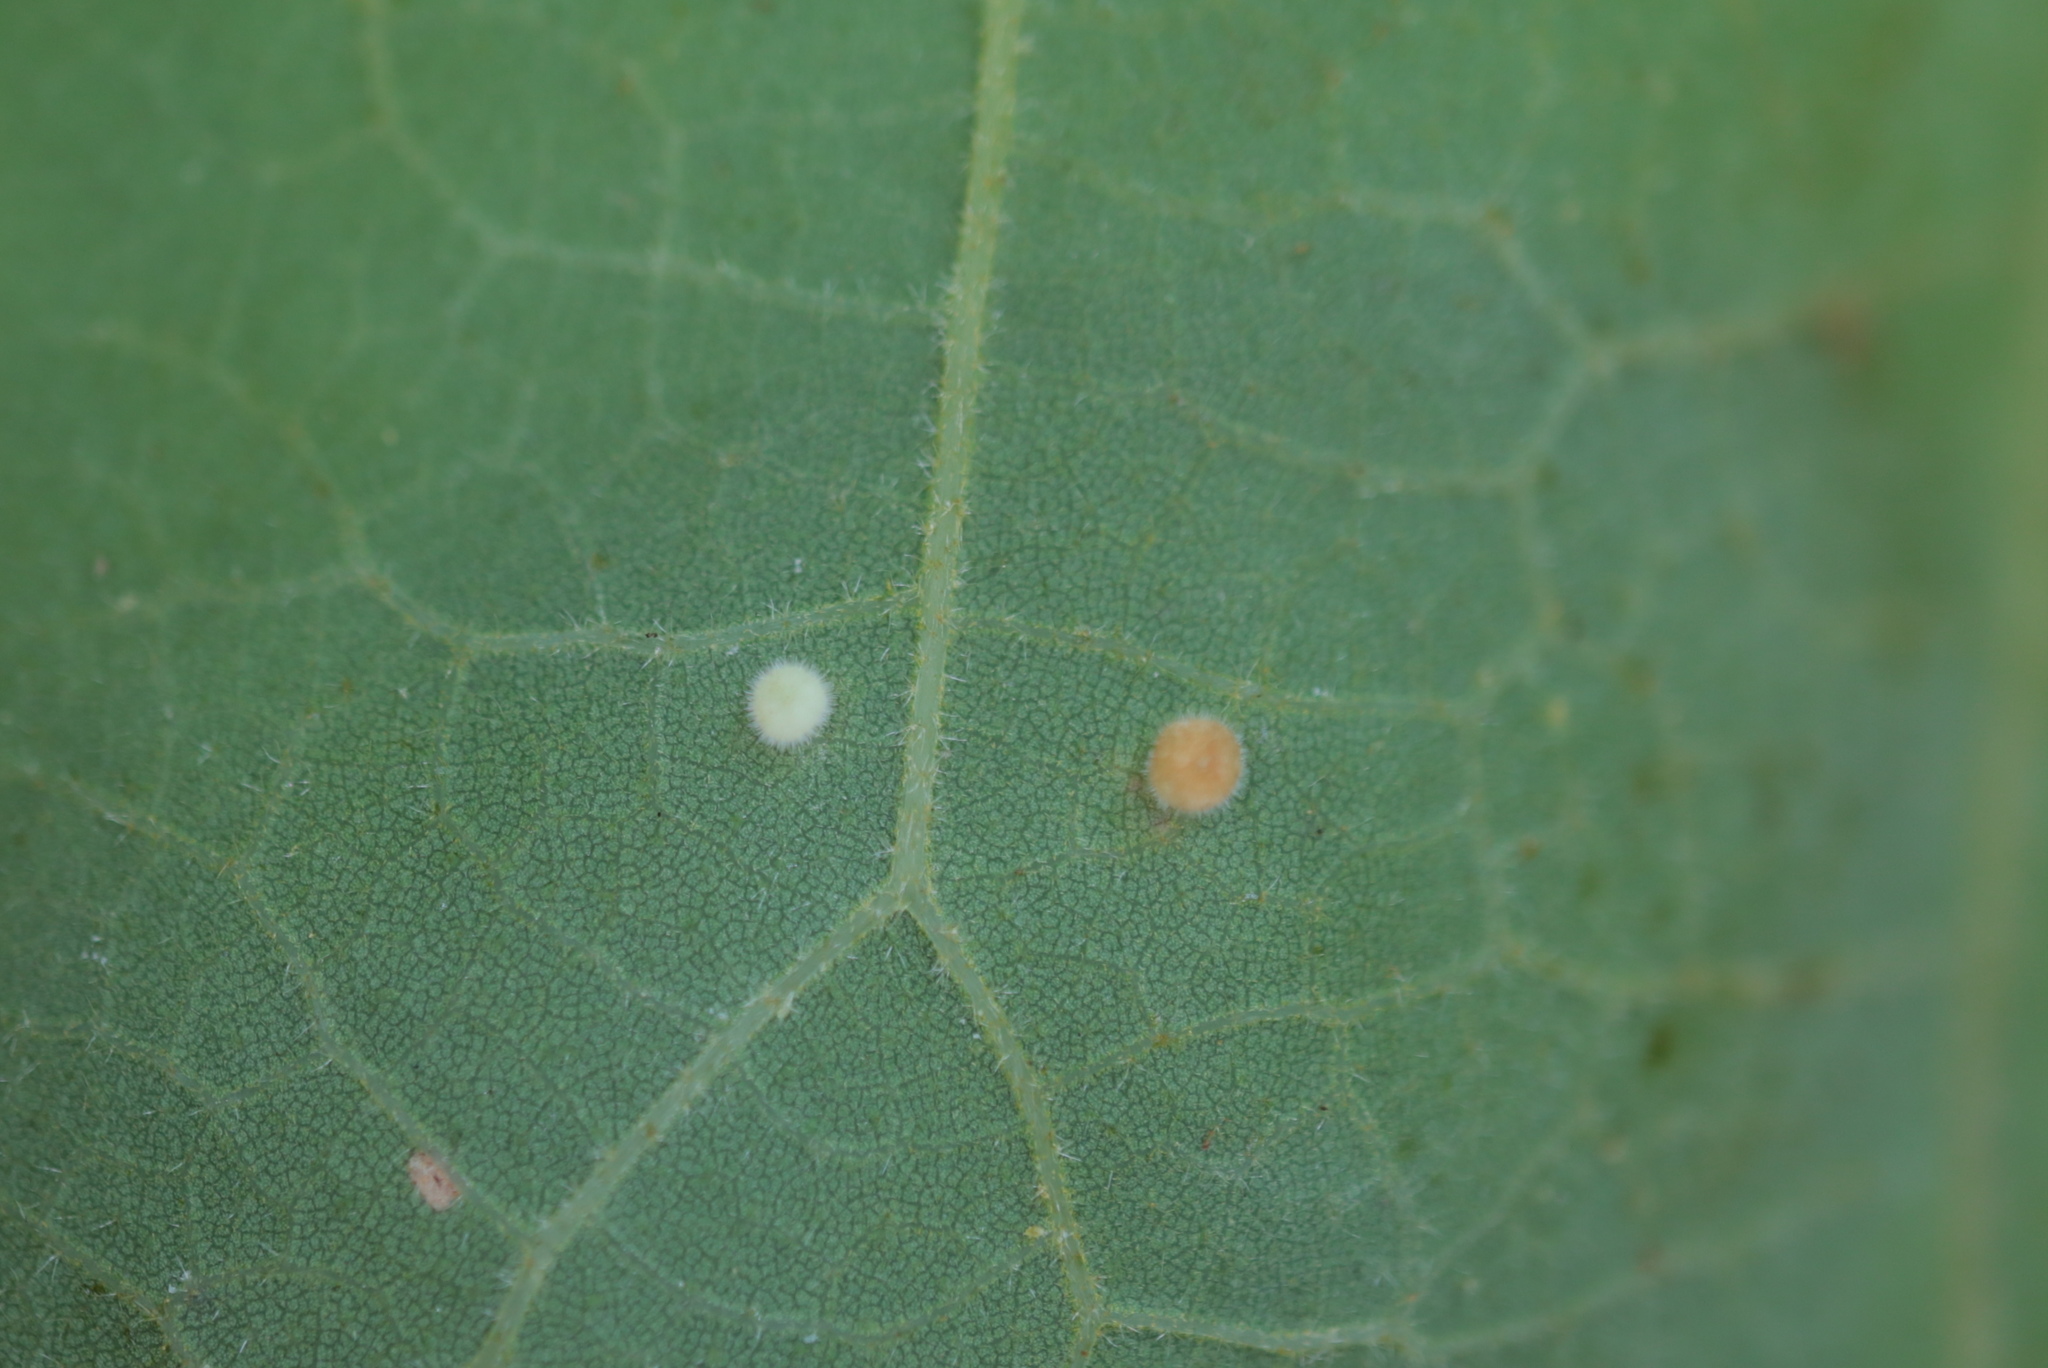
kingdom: Animalia
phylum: Arthropoda
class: Insecta
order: Hymenoptera
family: Cynipidae
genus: Neuroterus
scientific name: Neuroterus saltarius
